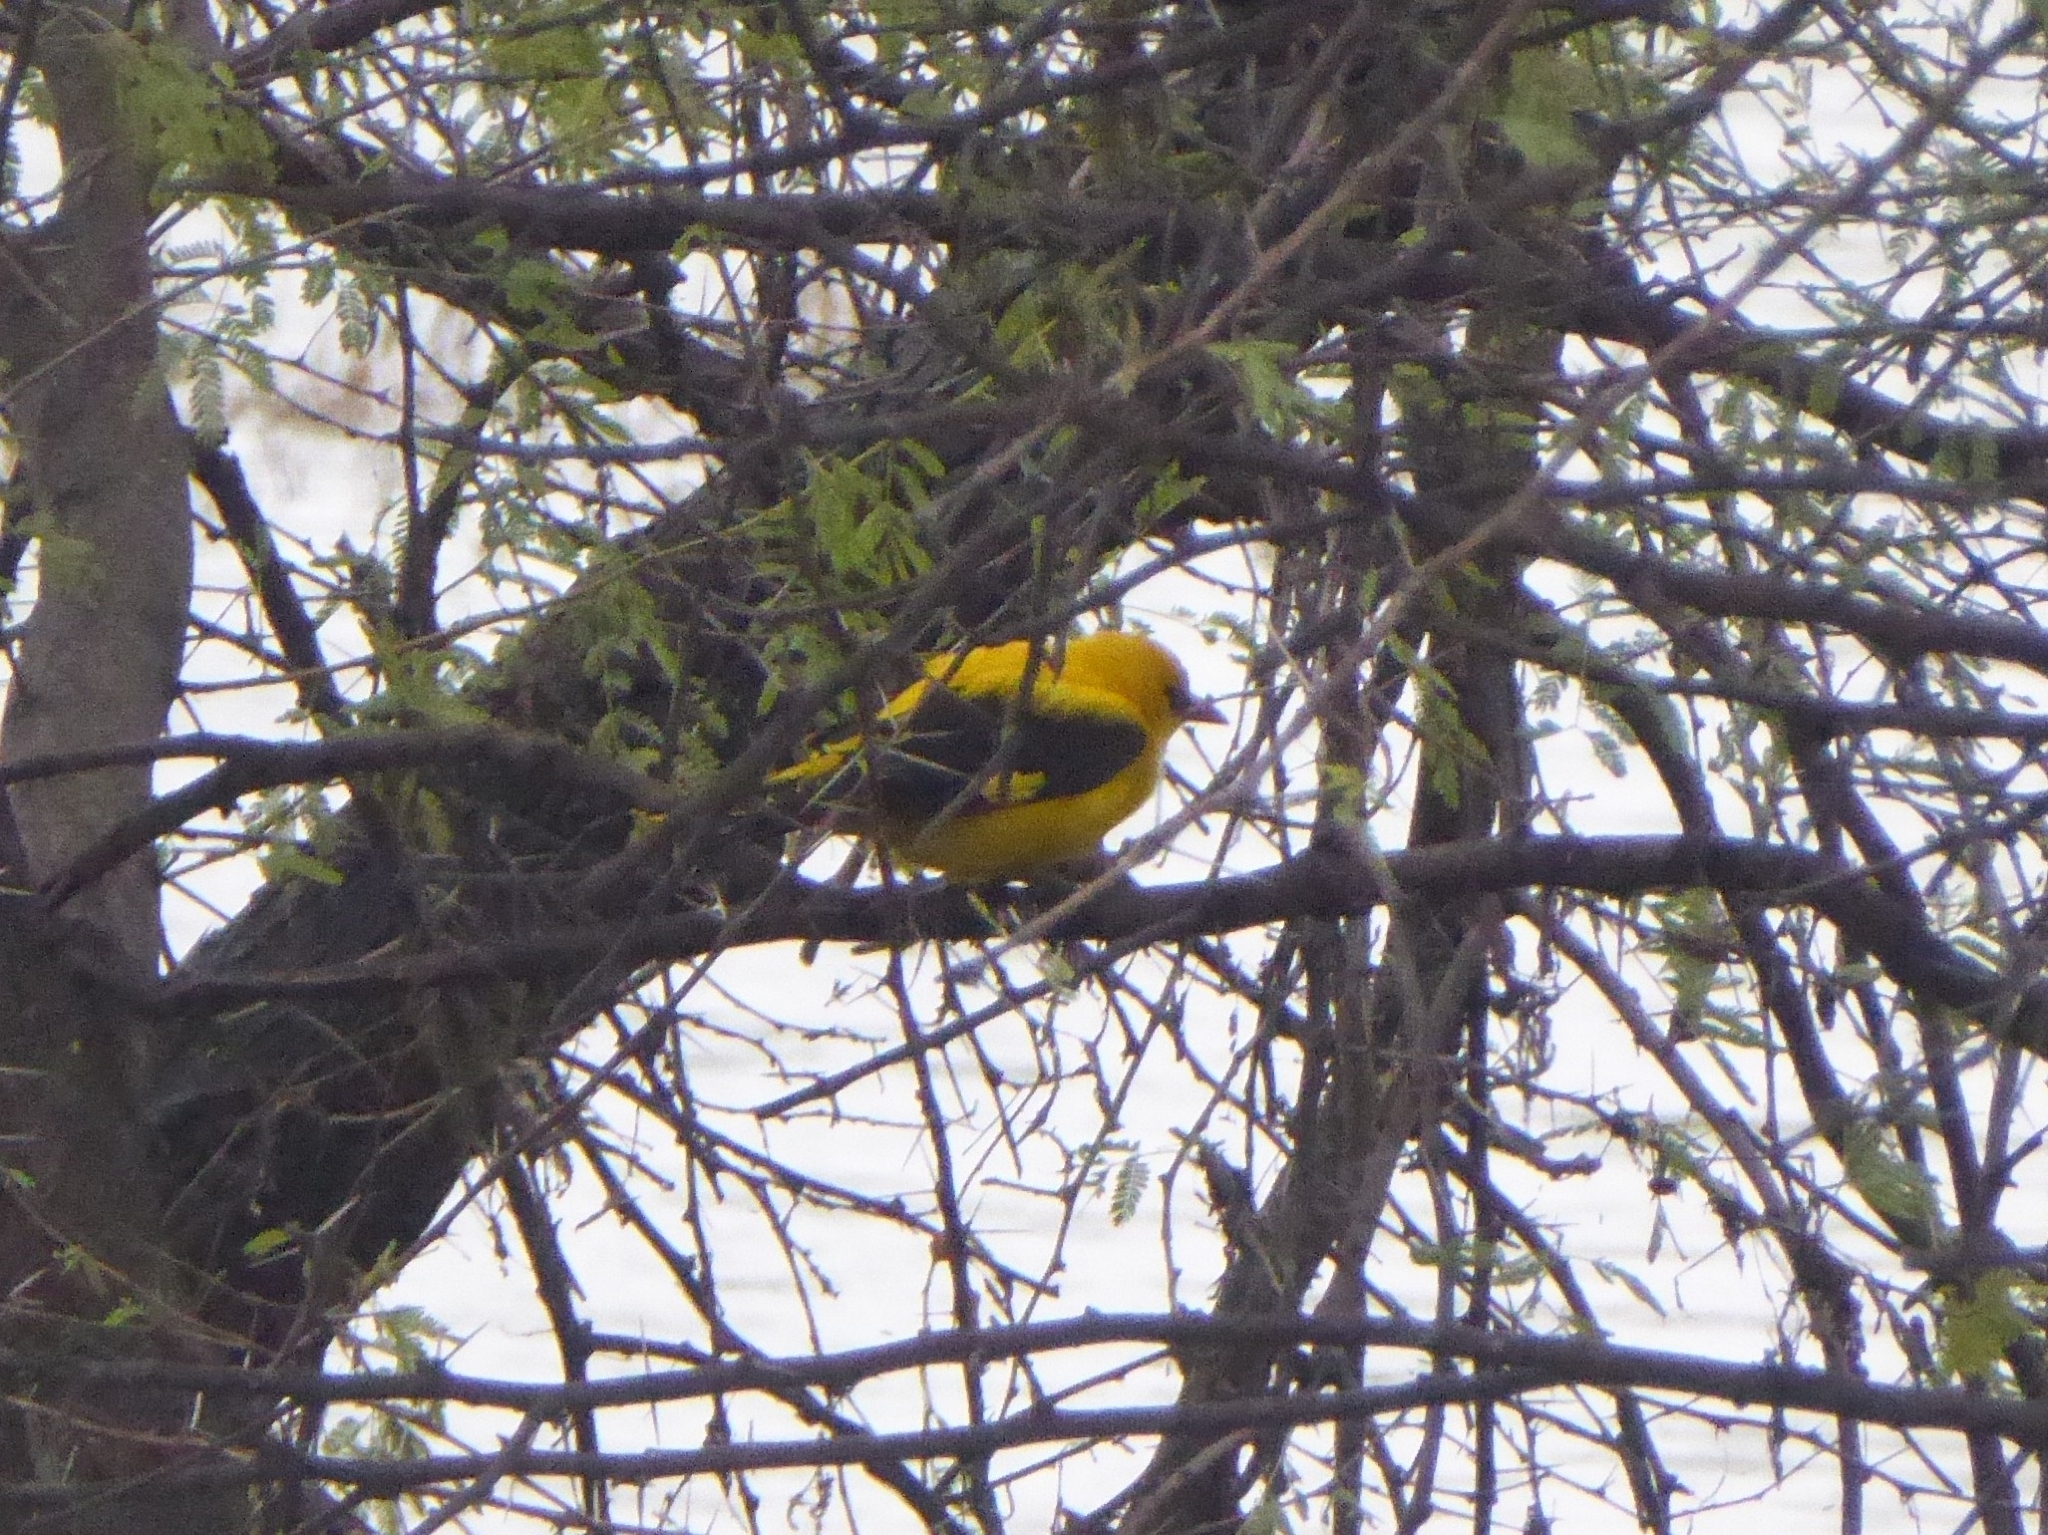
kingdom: Animalia
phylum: Chordata
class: Aves
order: Passeriformes
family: Oriolidae
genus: Oriolus
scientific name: Oriolus kundoo
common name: Indian golden oriole
